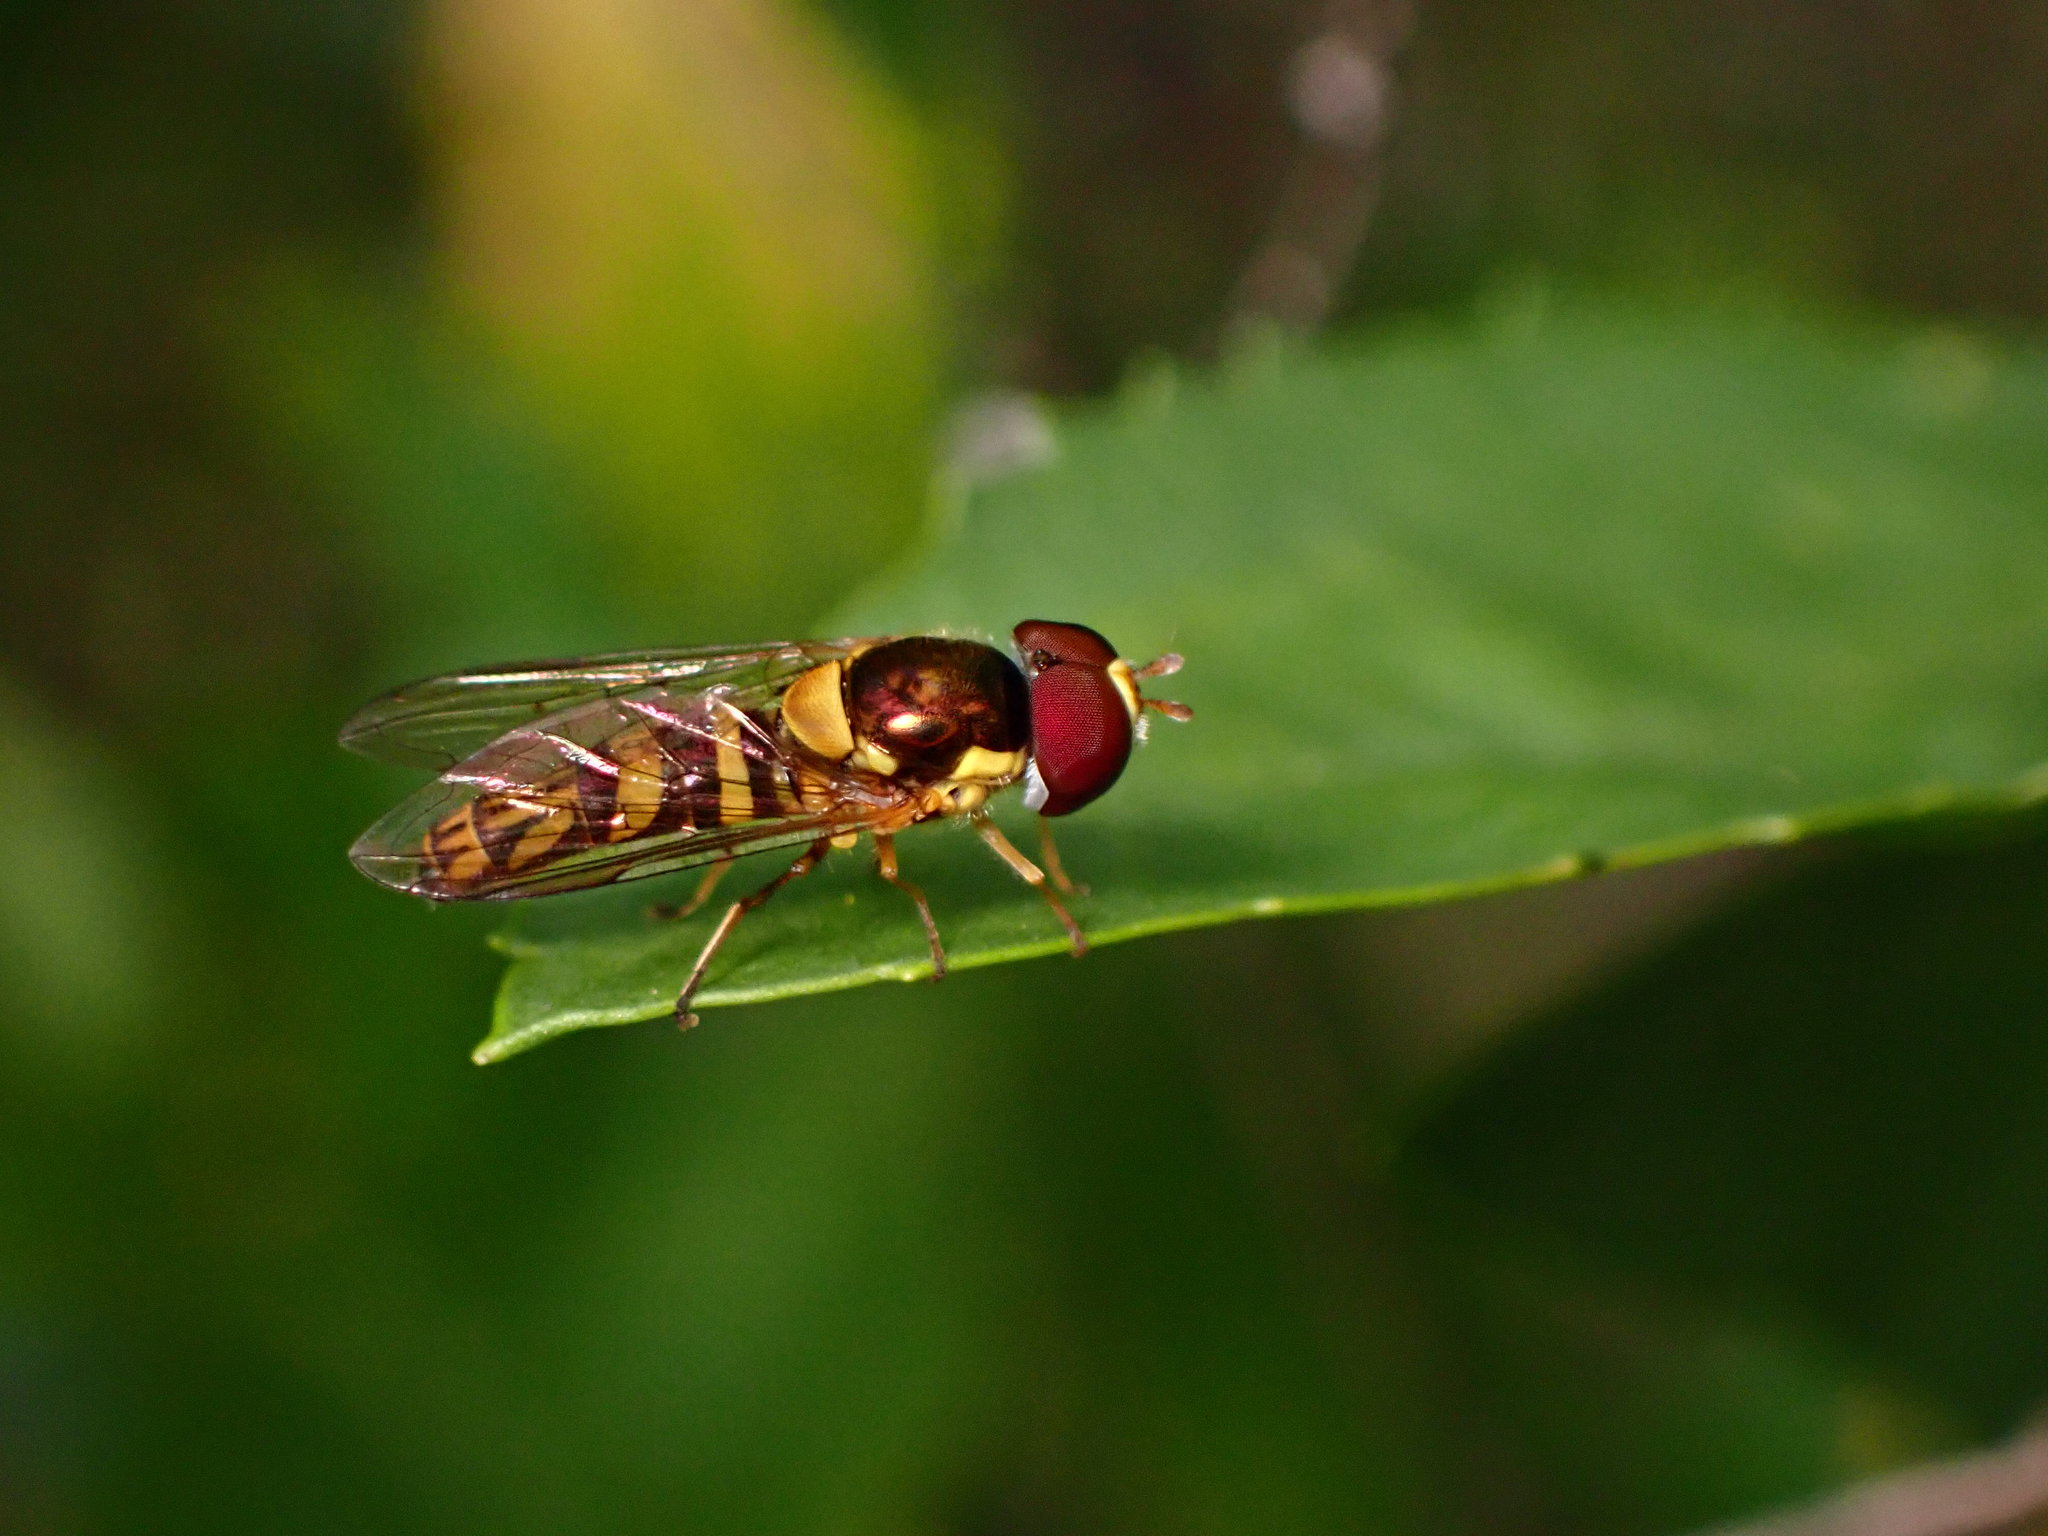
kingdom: Animalia
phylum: Arthropoda
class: Insecta
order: Diptera
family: Syrphidae
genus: Allograpta
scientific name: Allograpta obliqua
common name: Common oblique syrphid
